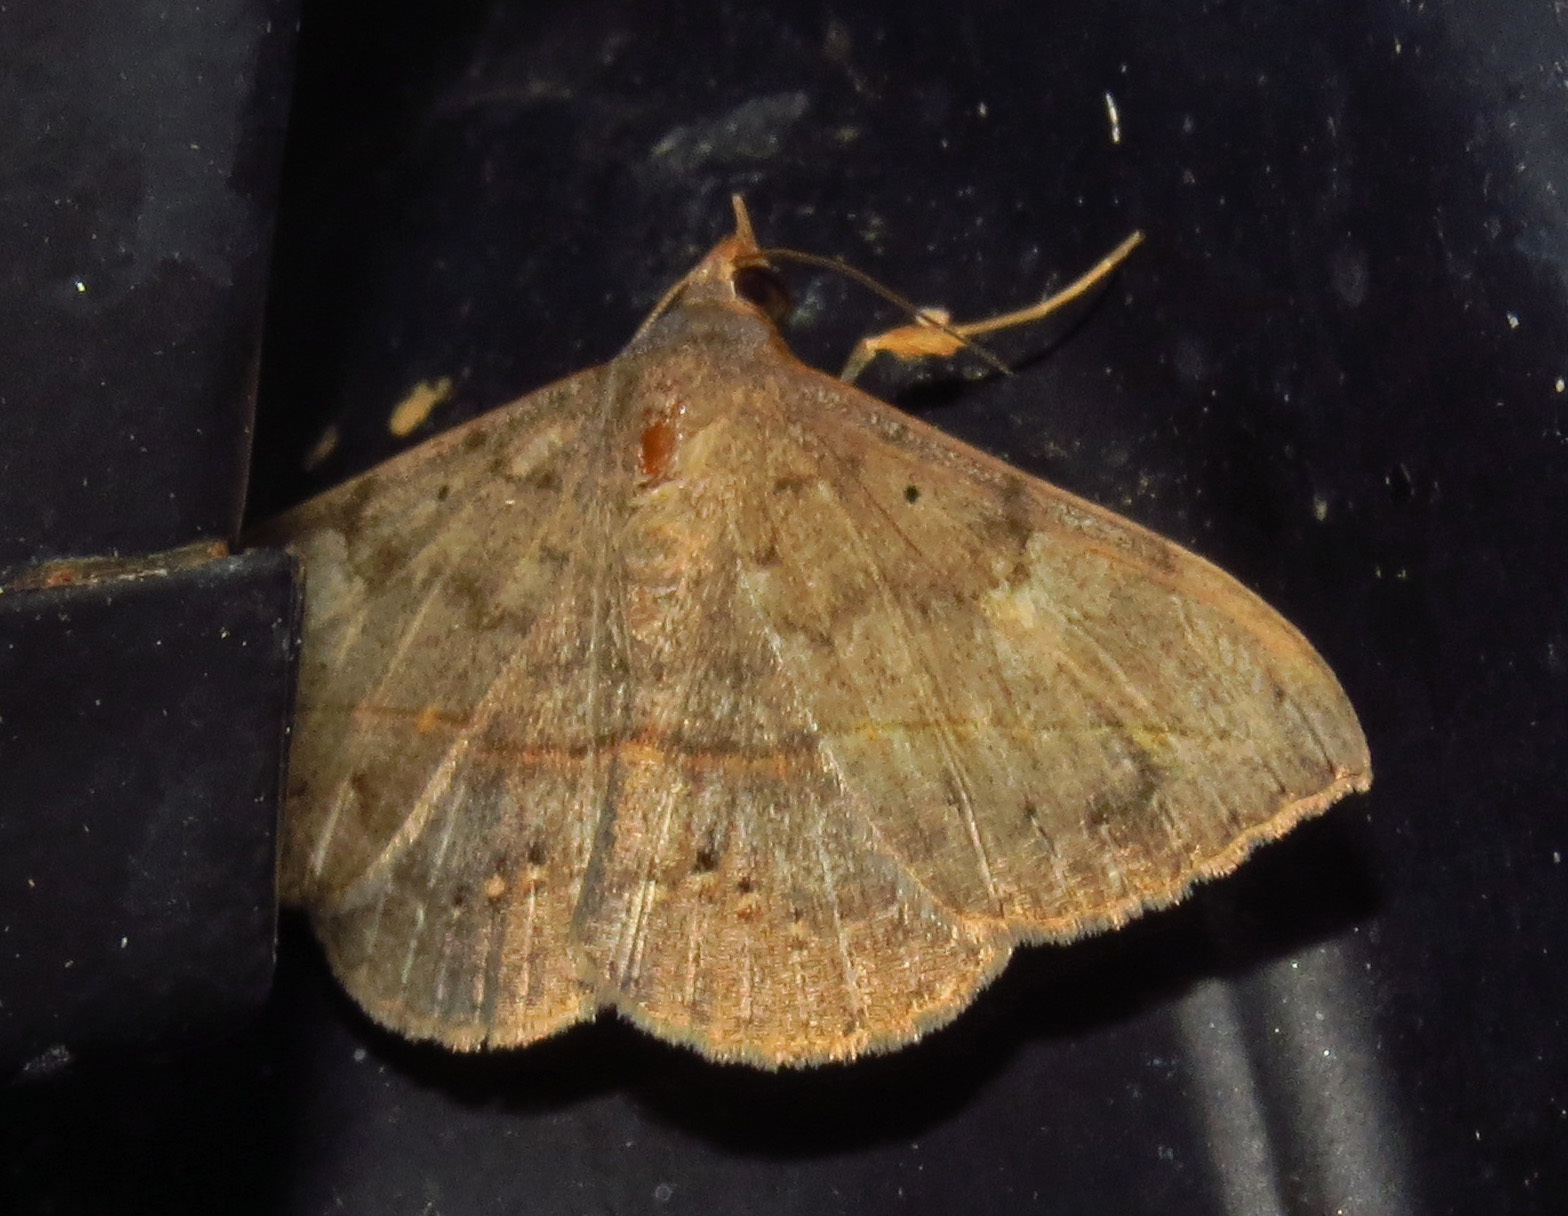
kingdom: Animalia
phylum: Arthropoda
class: Insecta
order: Lepidoptera
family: Erebidae
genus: Anticarsia
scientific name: Anticarsia gemmatalis
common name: Cutworm moth
